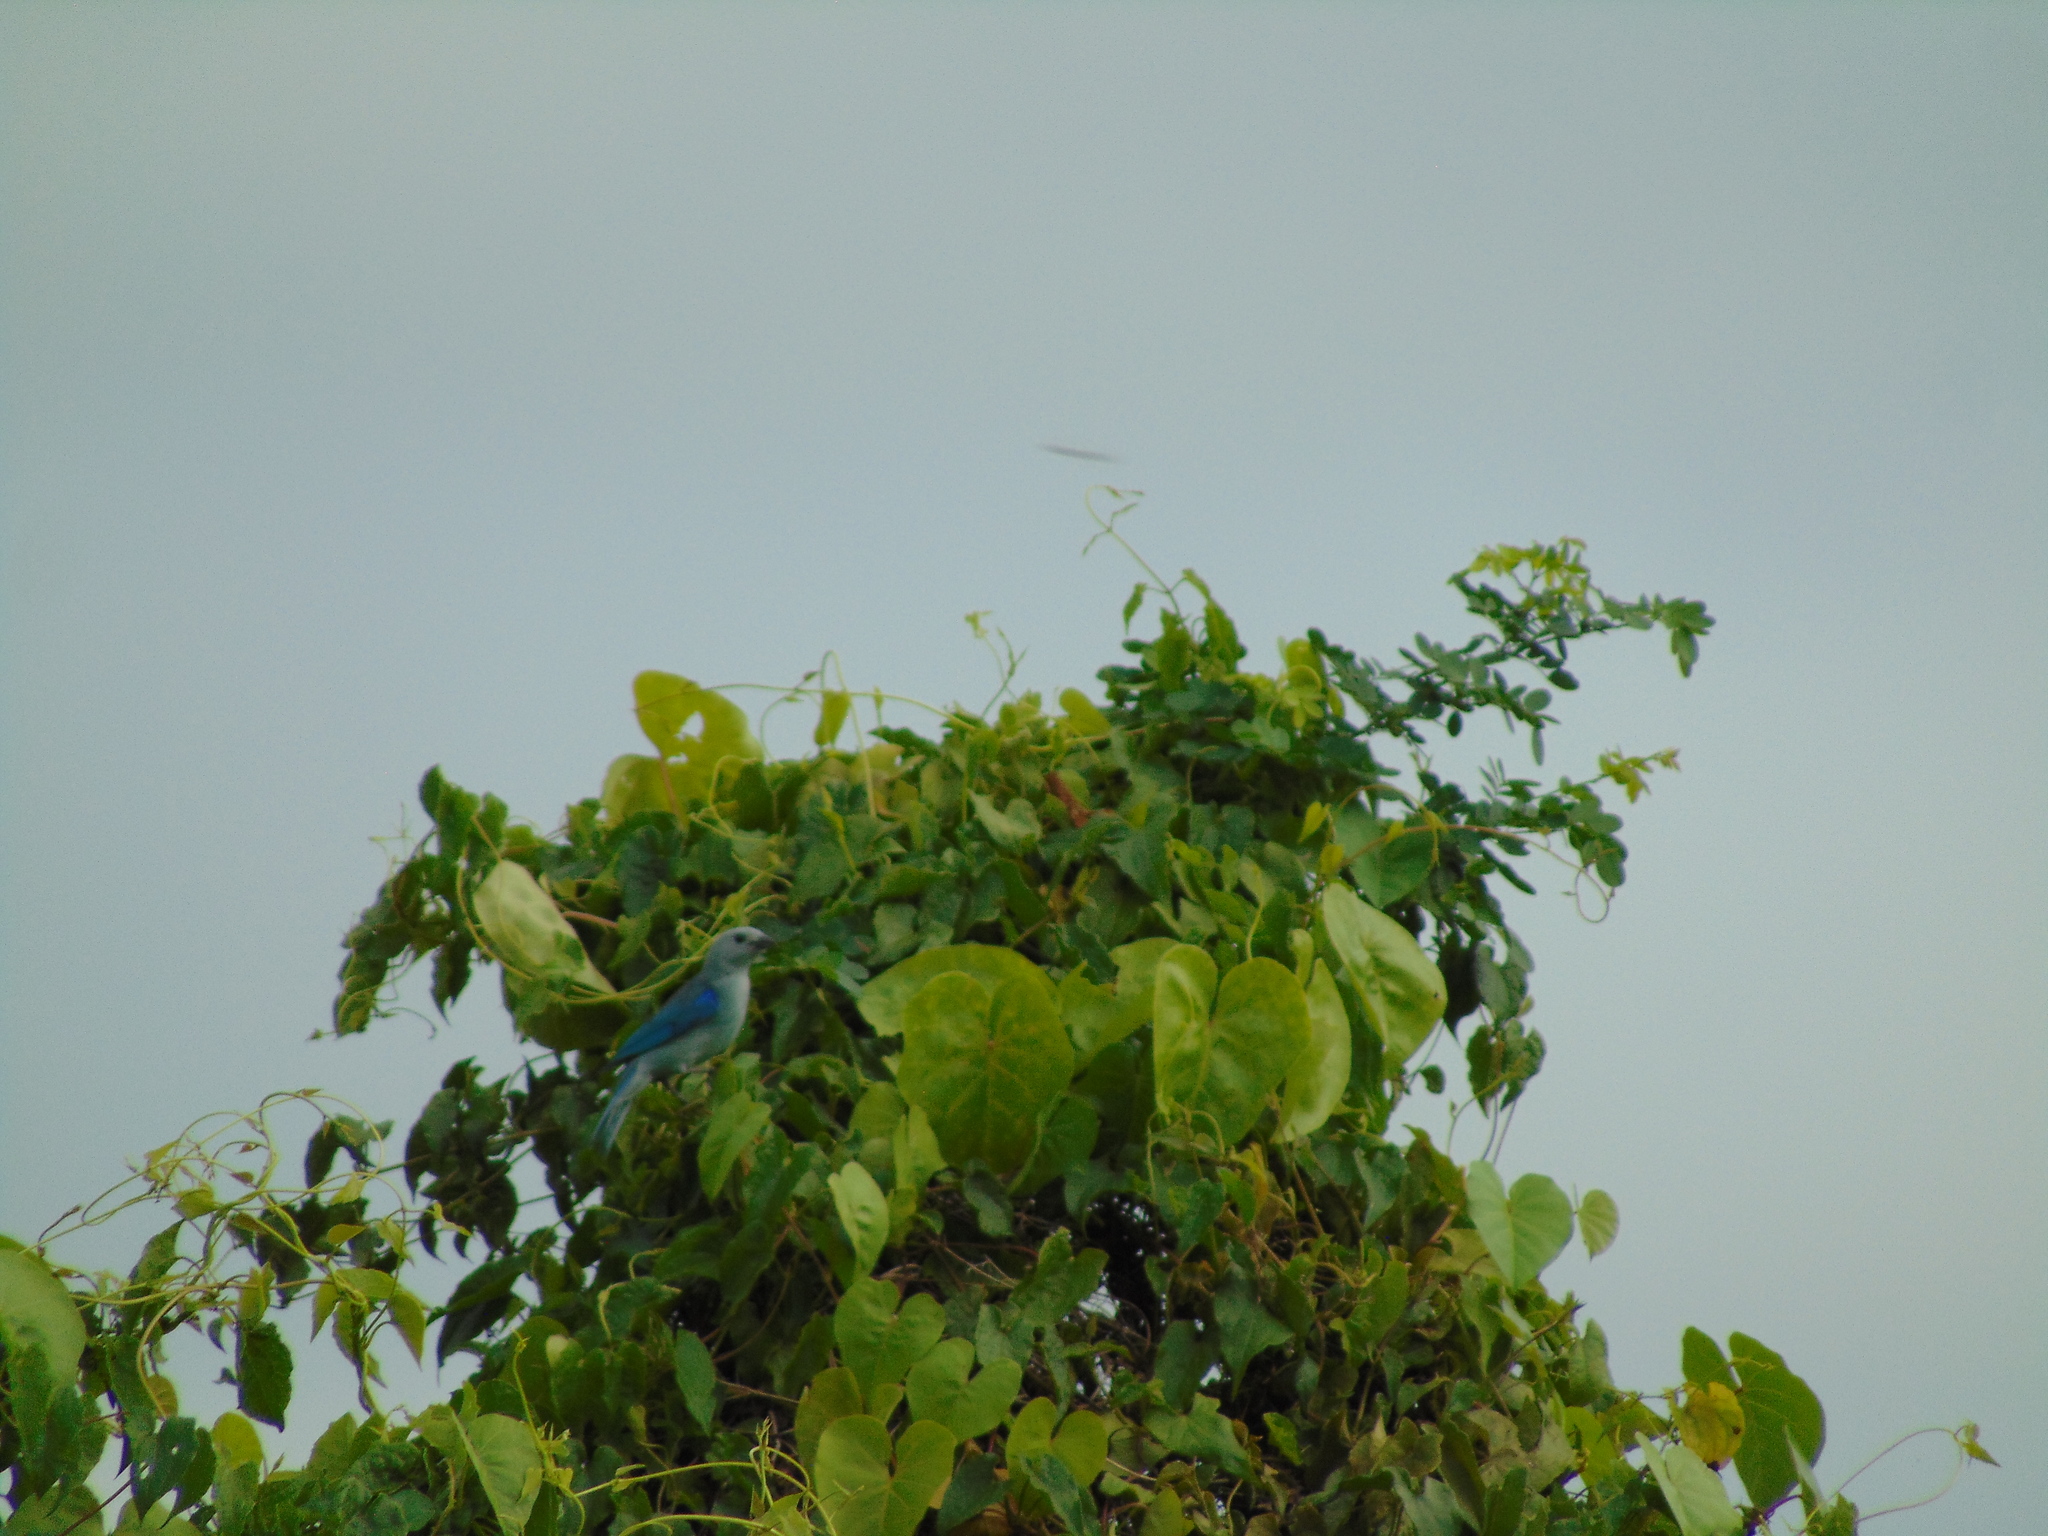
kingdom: Animalia
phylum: Chordata
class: Aves
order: Passeriformes
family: Thraupidae
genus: Thraupis
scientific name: Thraupis episcopus
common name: Blue-grey tanager
